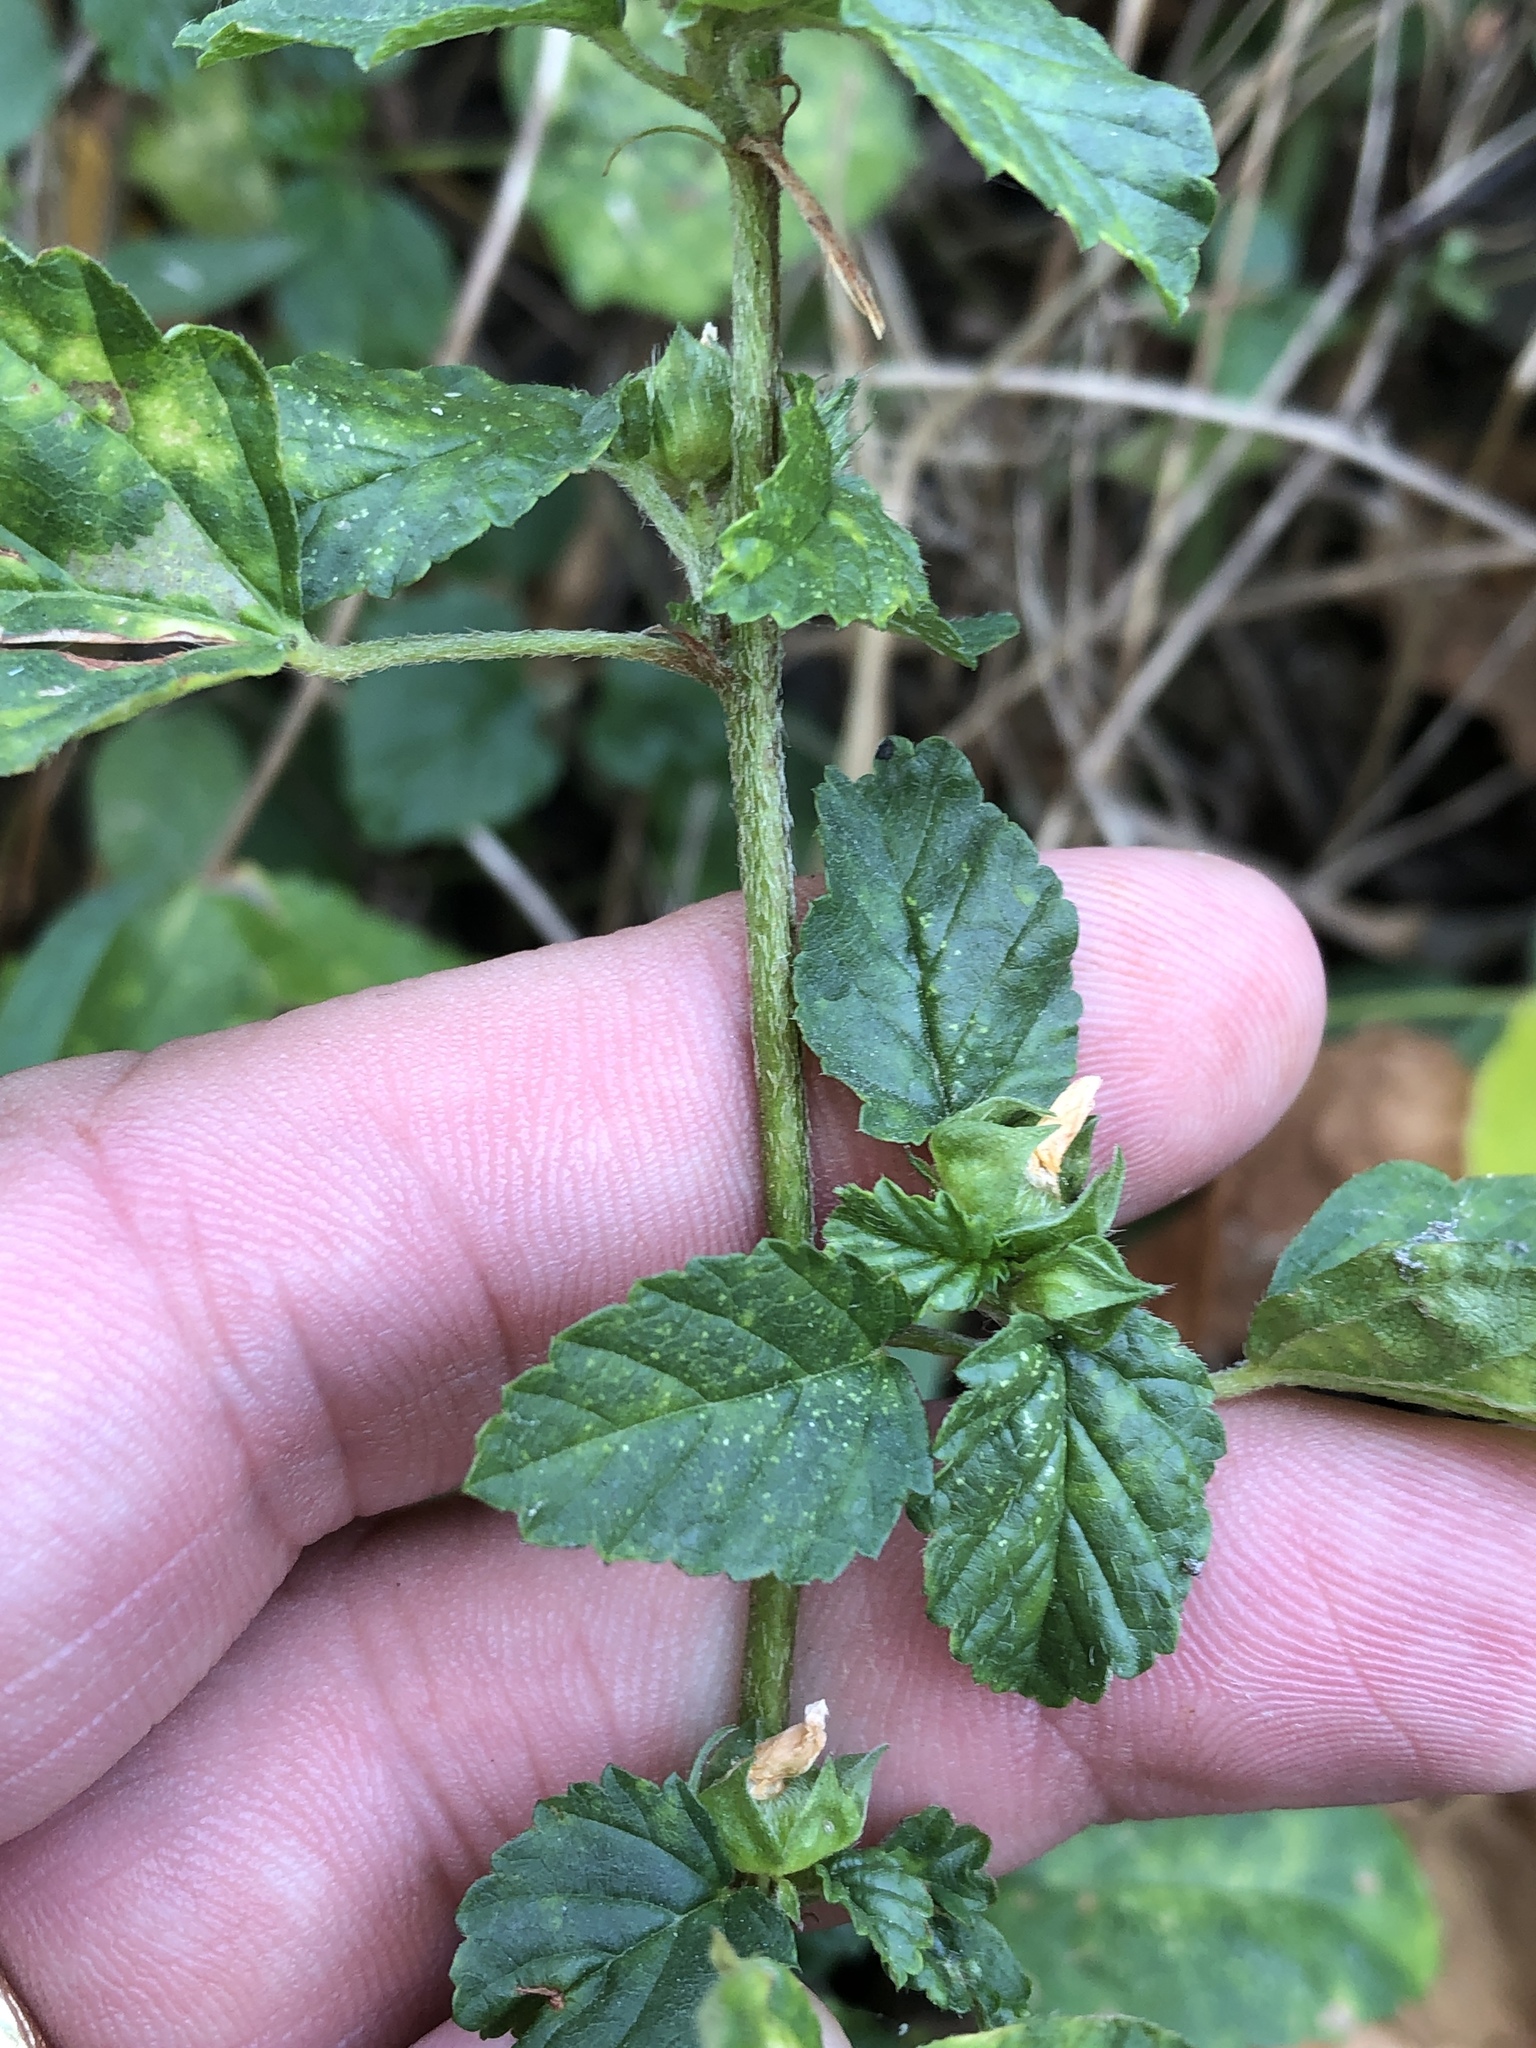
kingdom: Plantae
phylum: Tracheophyta
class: Magnoliopsida
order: Malvales
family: Malvaceae
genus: Malvastrum
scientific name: Malvastrum coromandelianum
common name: Threelobe false mallow
